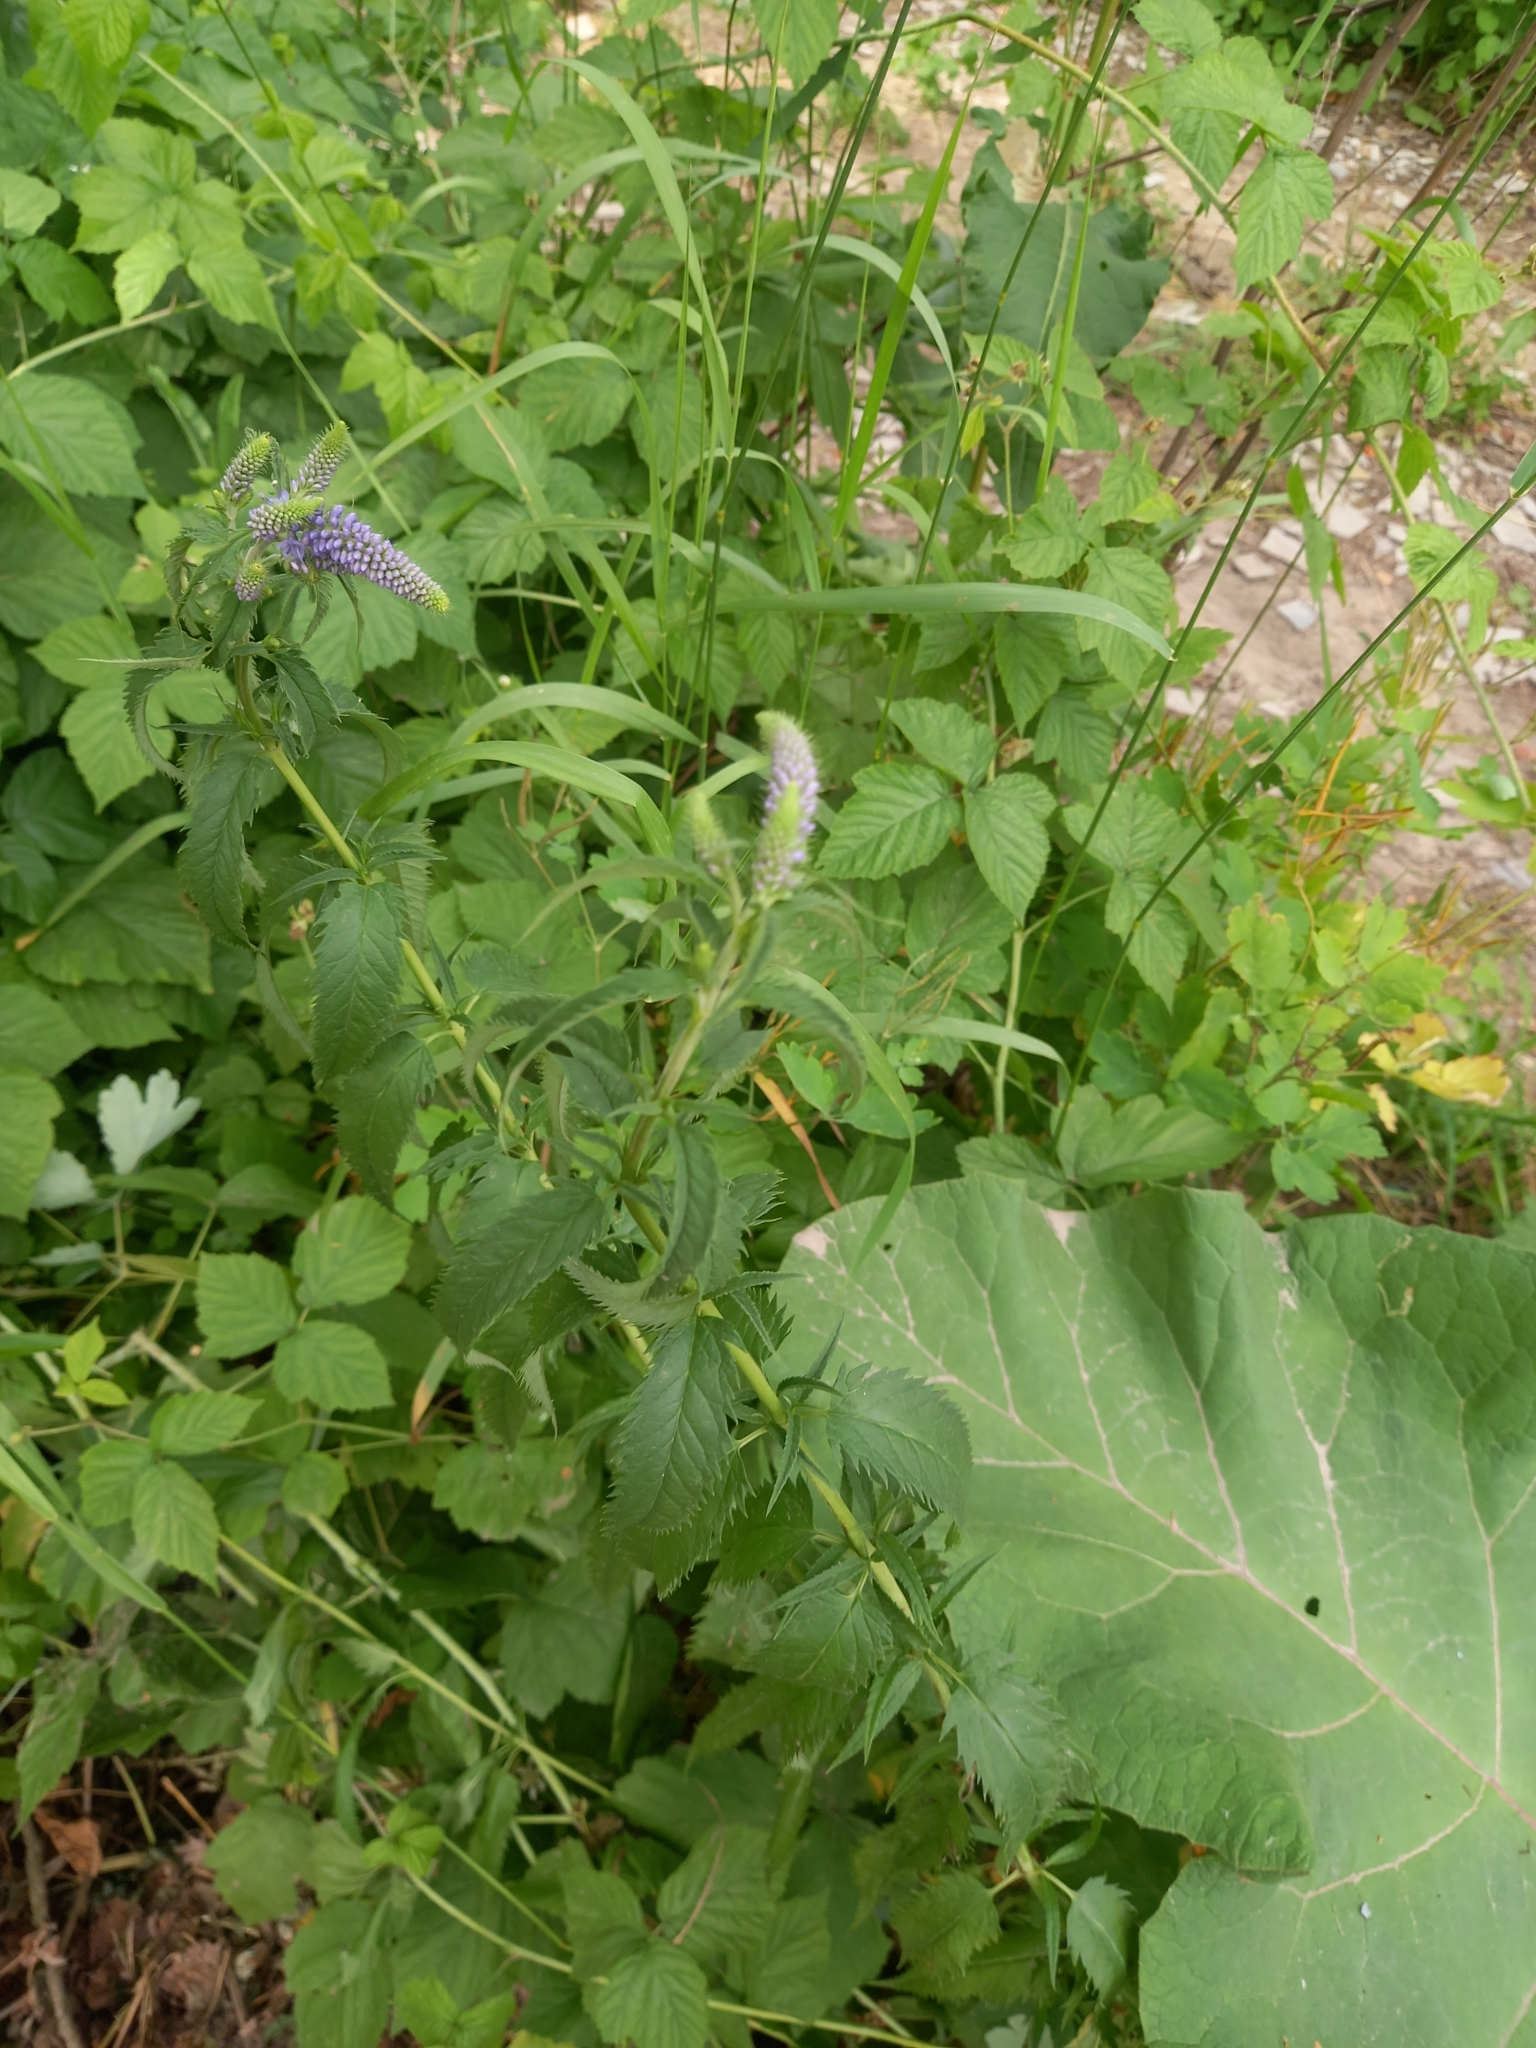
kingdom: Plantae
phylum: Tracheophyta
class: Magnoliopsida
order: Lamiales
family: Plantaginaceae
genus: Veronica
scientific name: Veronica longifolia
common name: Garden speedwell
